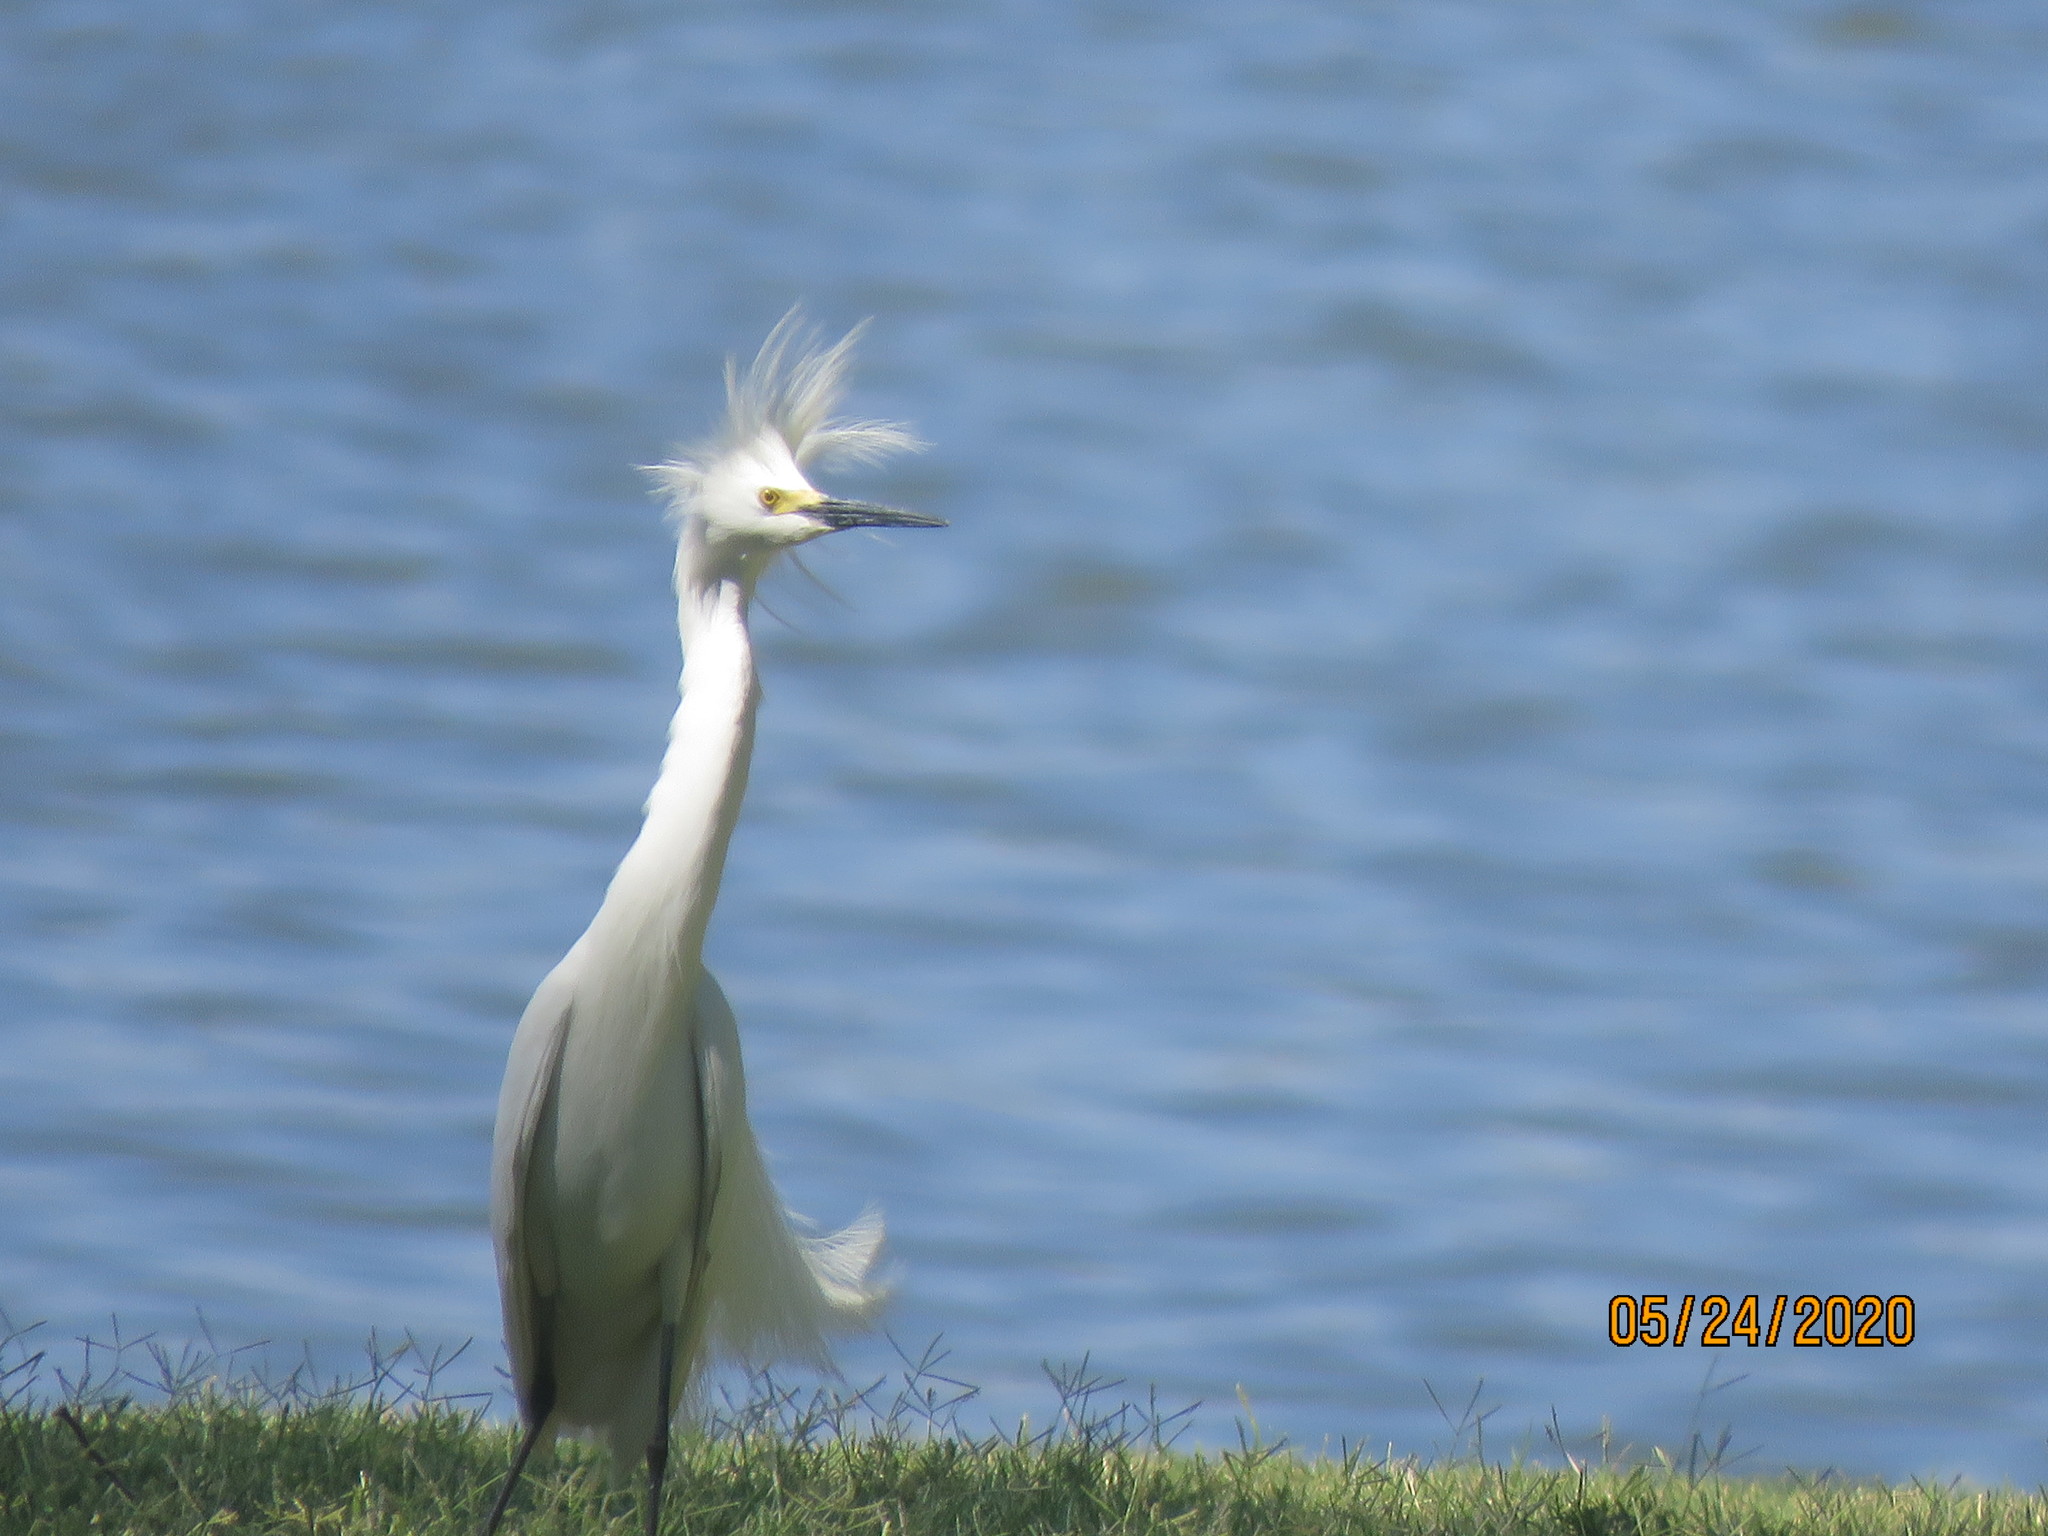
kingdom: Animalia
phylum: Chordata
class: Aves
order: Pelecaniformes
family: Ardeidae
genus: Egretta
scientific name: Egretta thula
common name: Snowy egret
